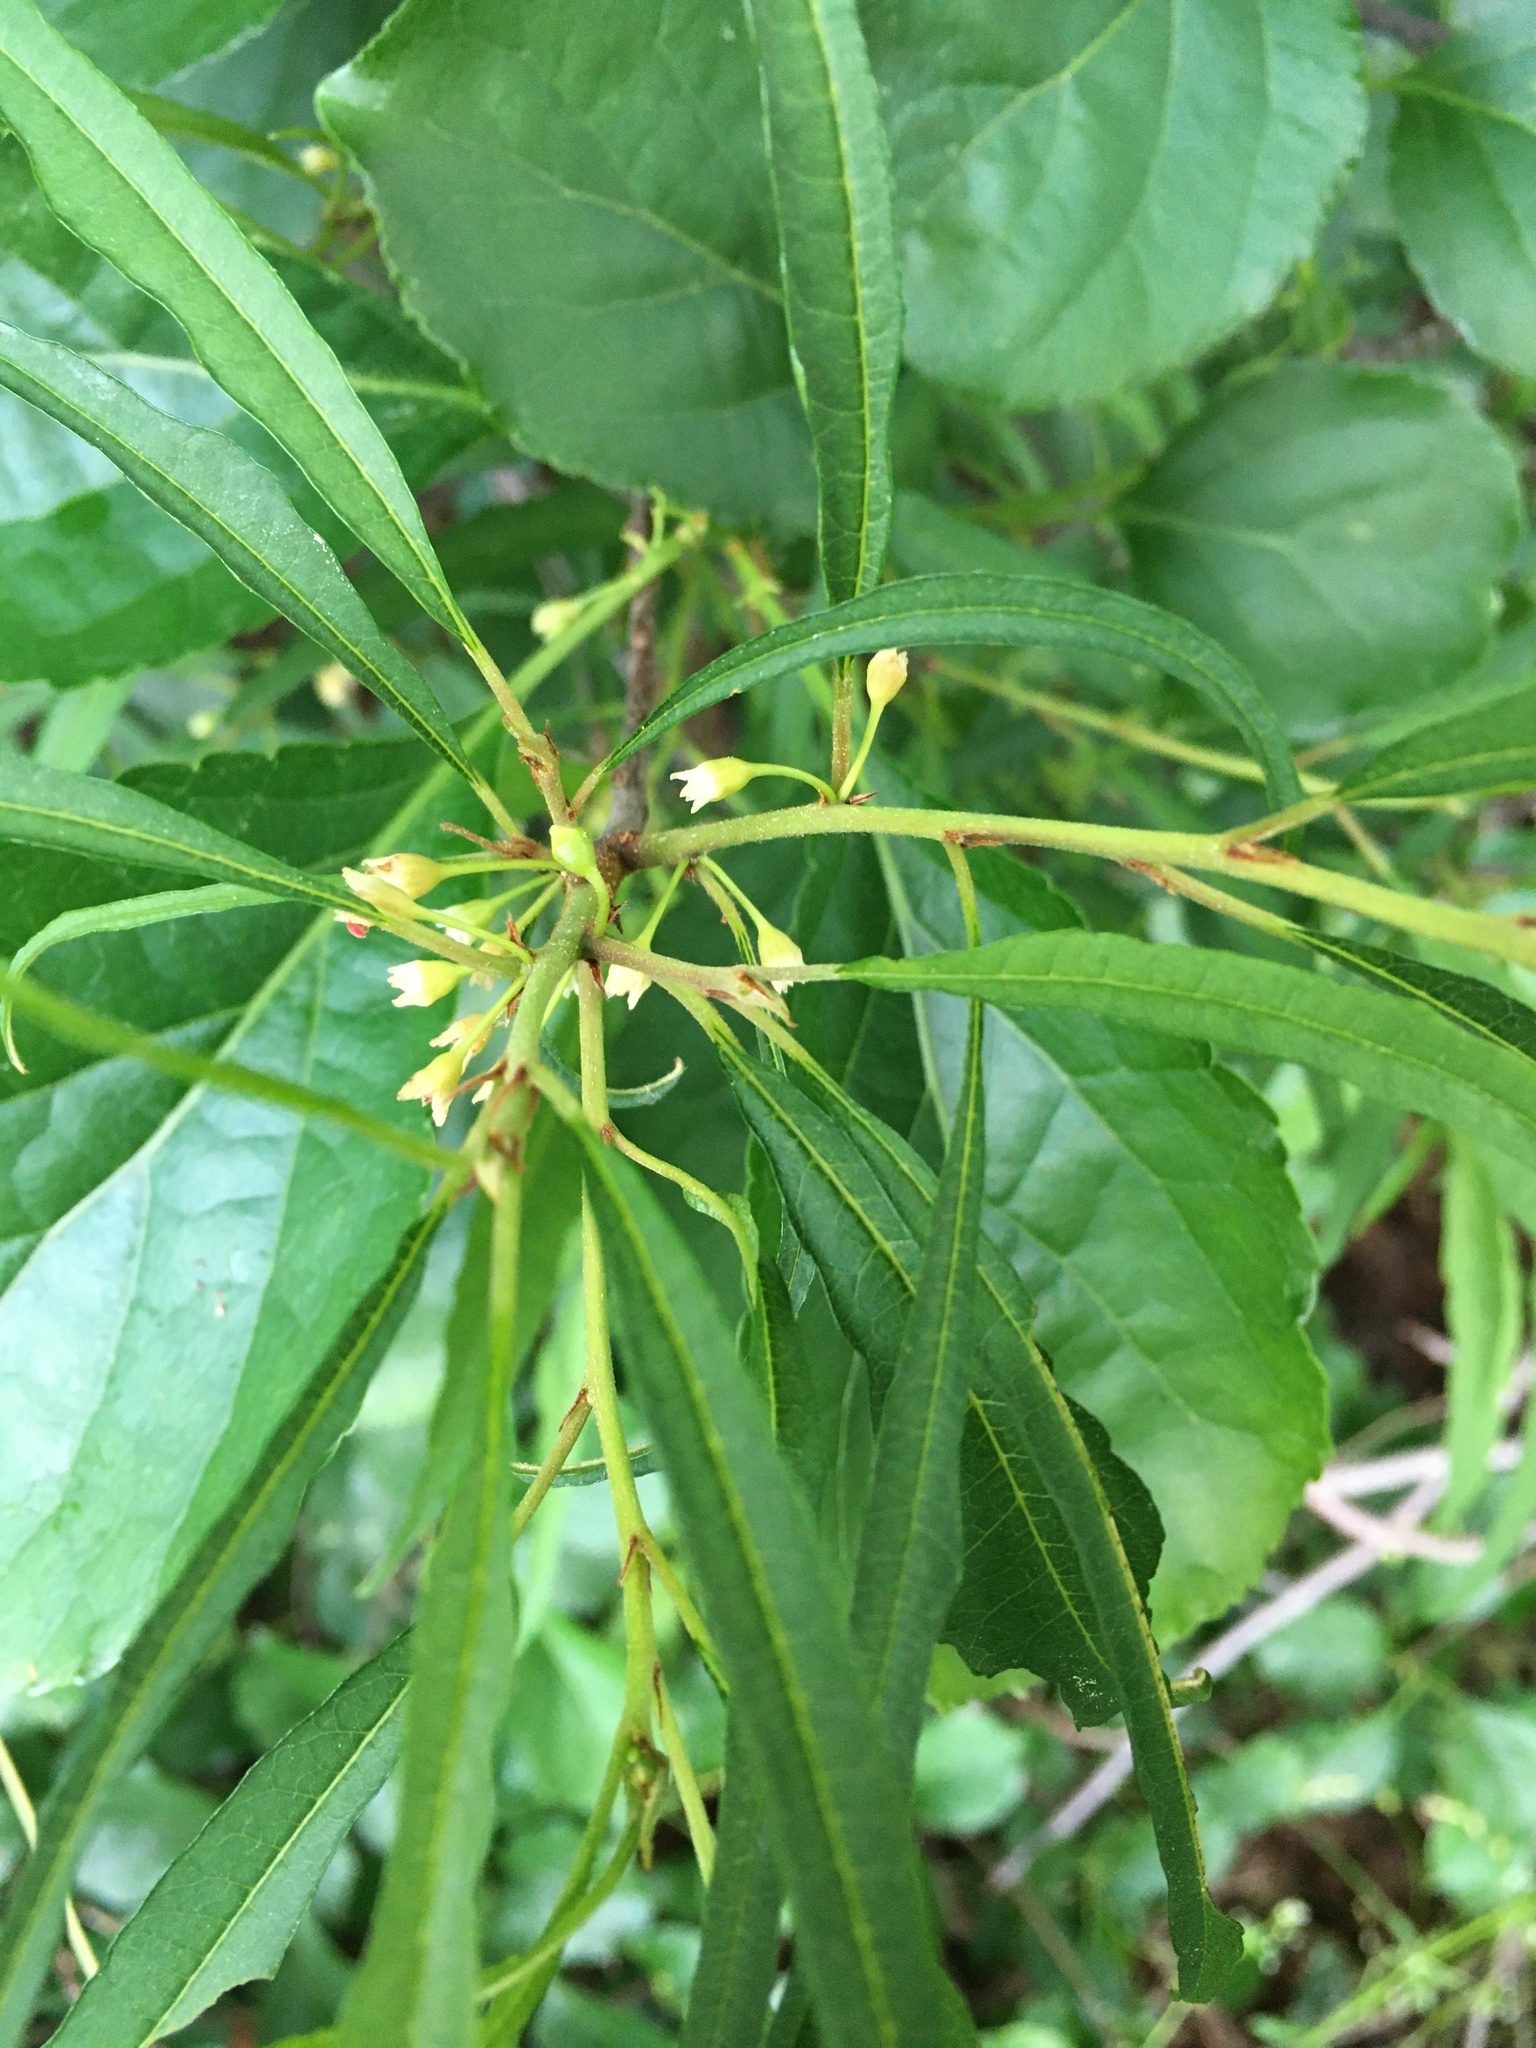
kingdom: Plantae
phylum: Tracheophyta
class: Magnoliopsida
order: Rosales
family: Rhamnaceae
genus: Frangula
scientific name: Frangula alnus
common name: Alder buckthorn
